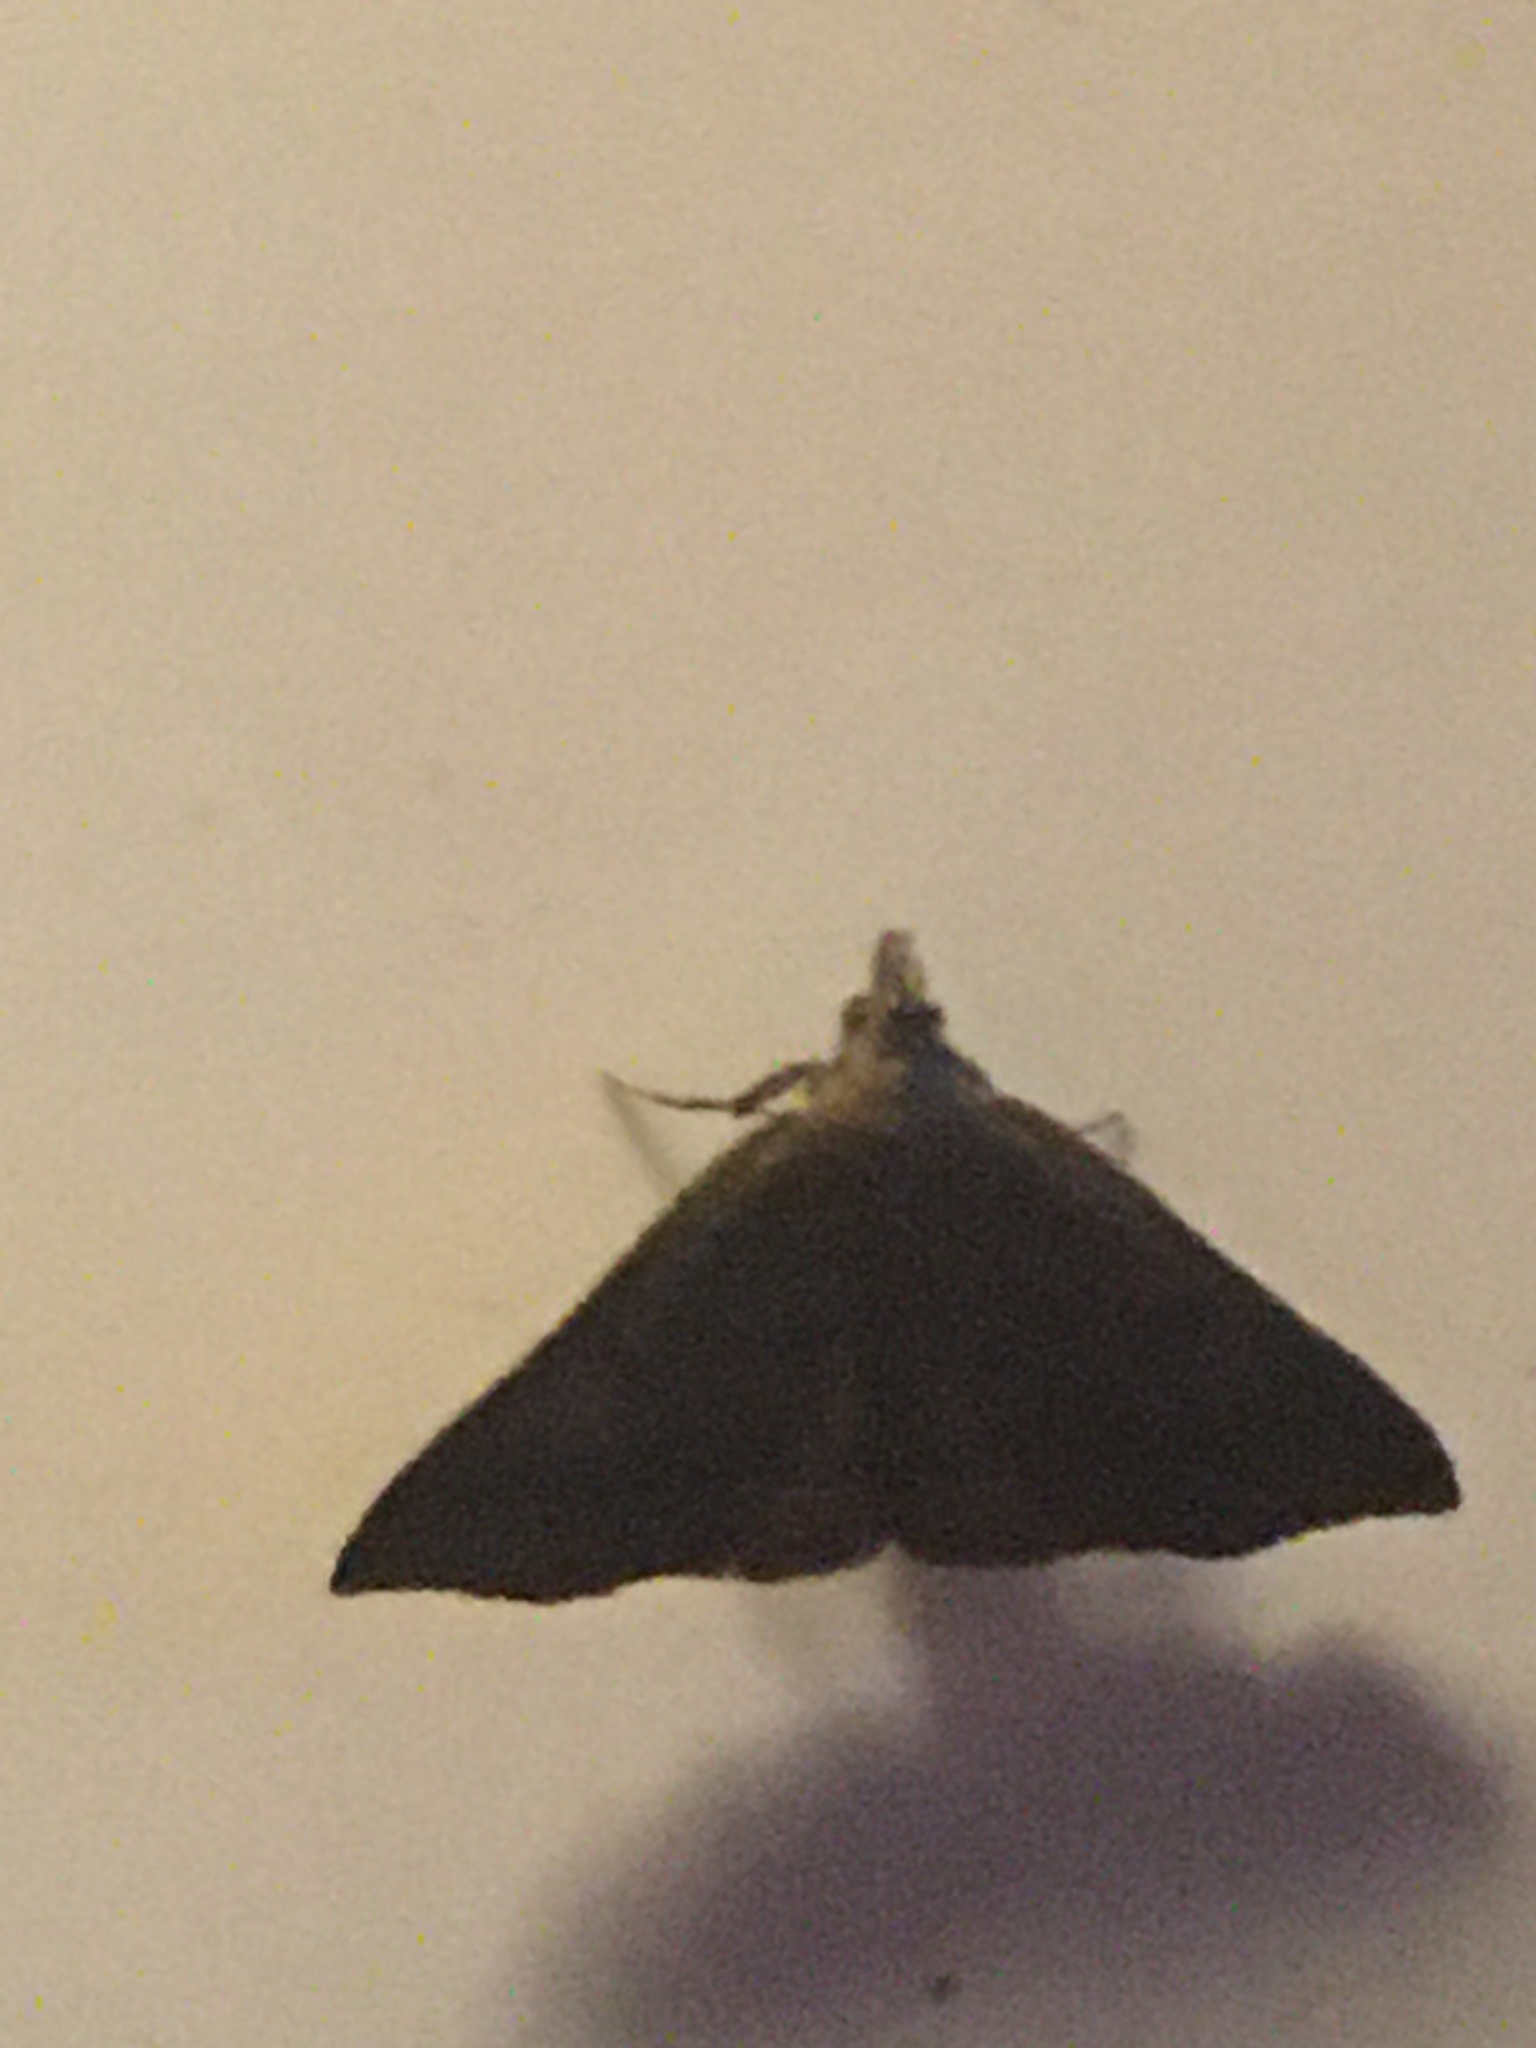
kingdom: Animalia
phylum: Arthropoda
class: Insecta
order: Lepidoptera
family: Erebidae
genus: Pechipogo
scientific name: Pechipogo plumigeralis
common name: Plumed fan-foot
